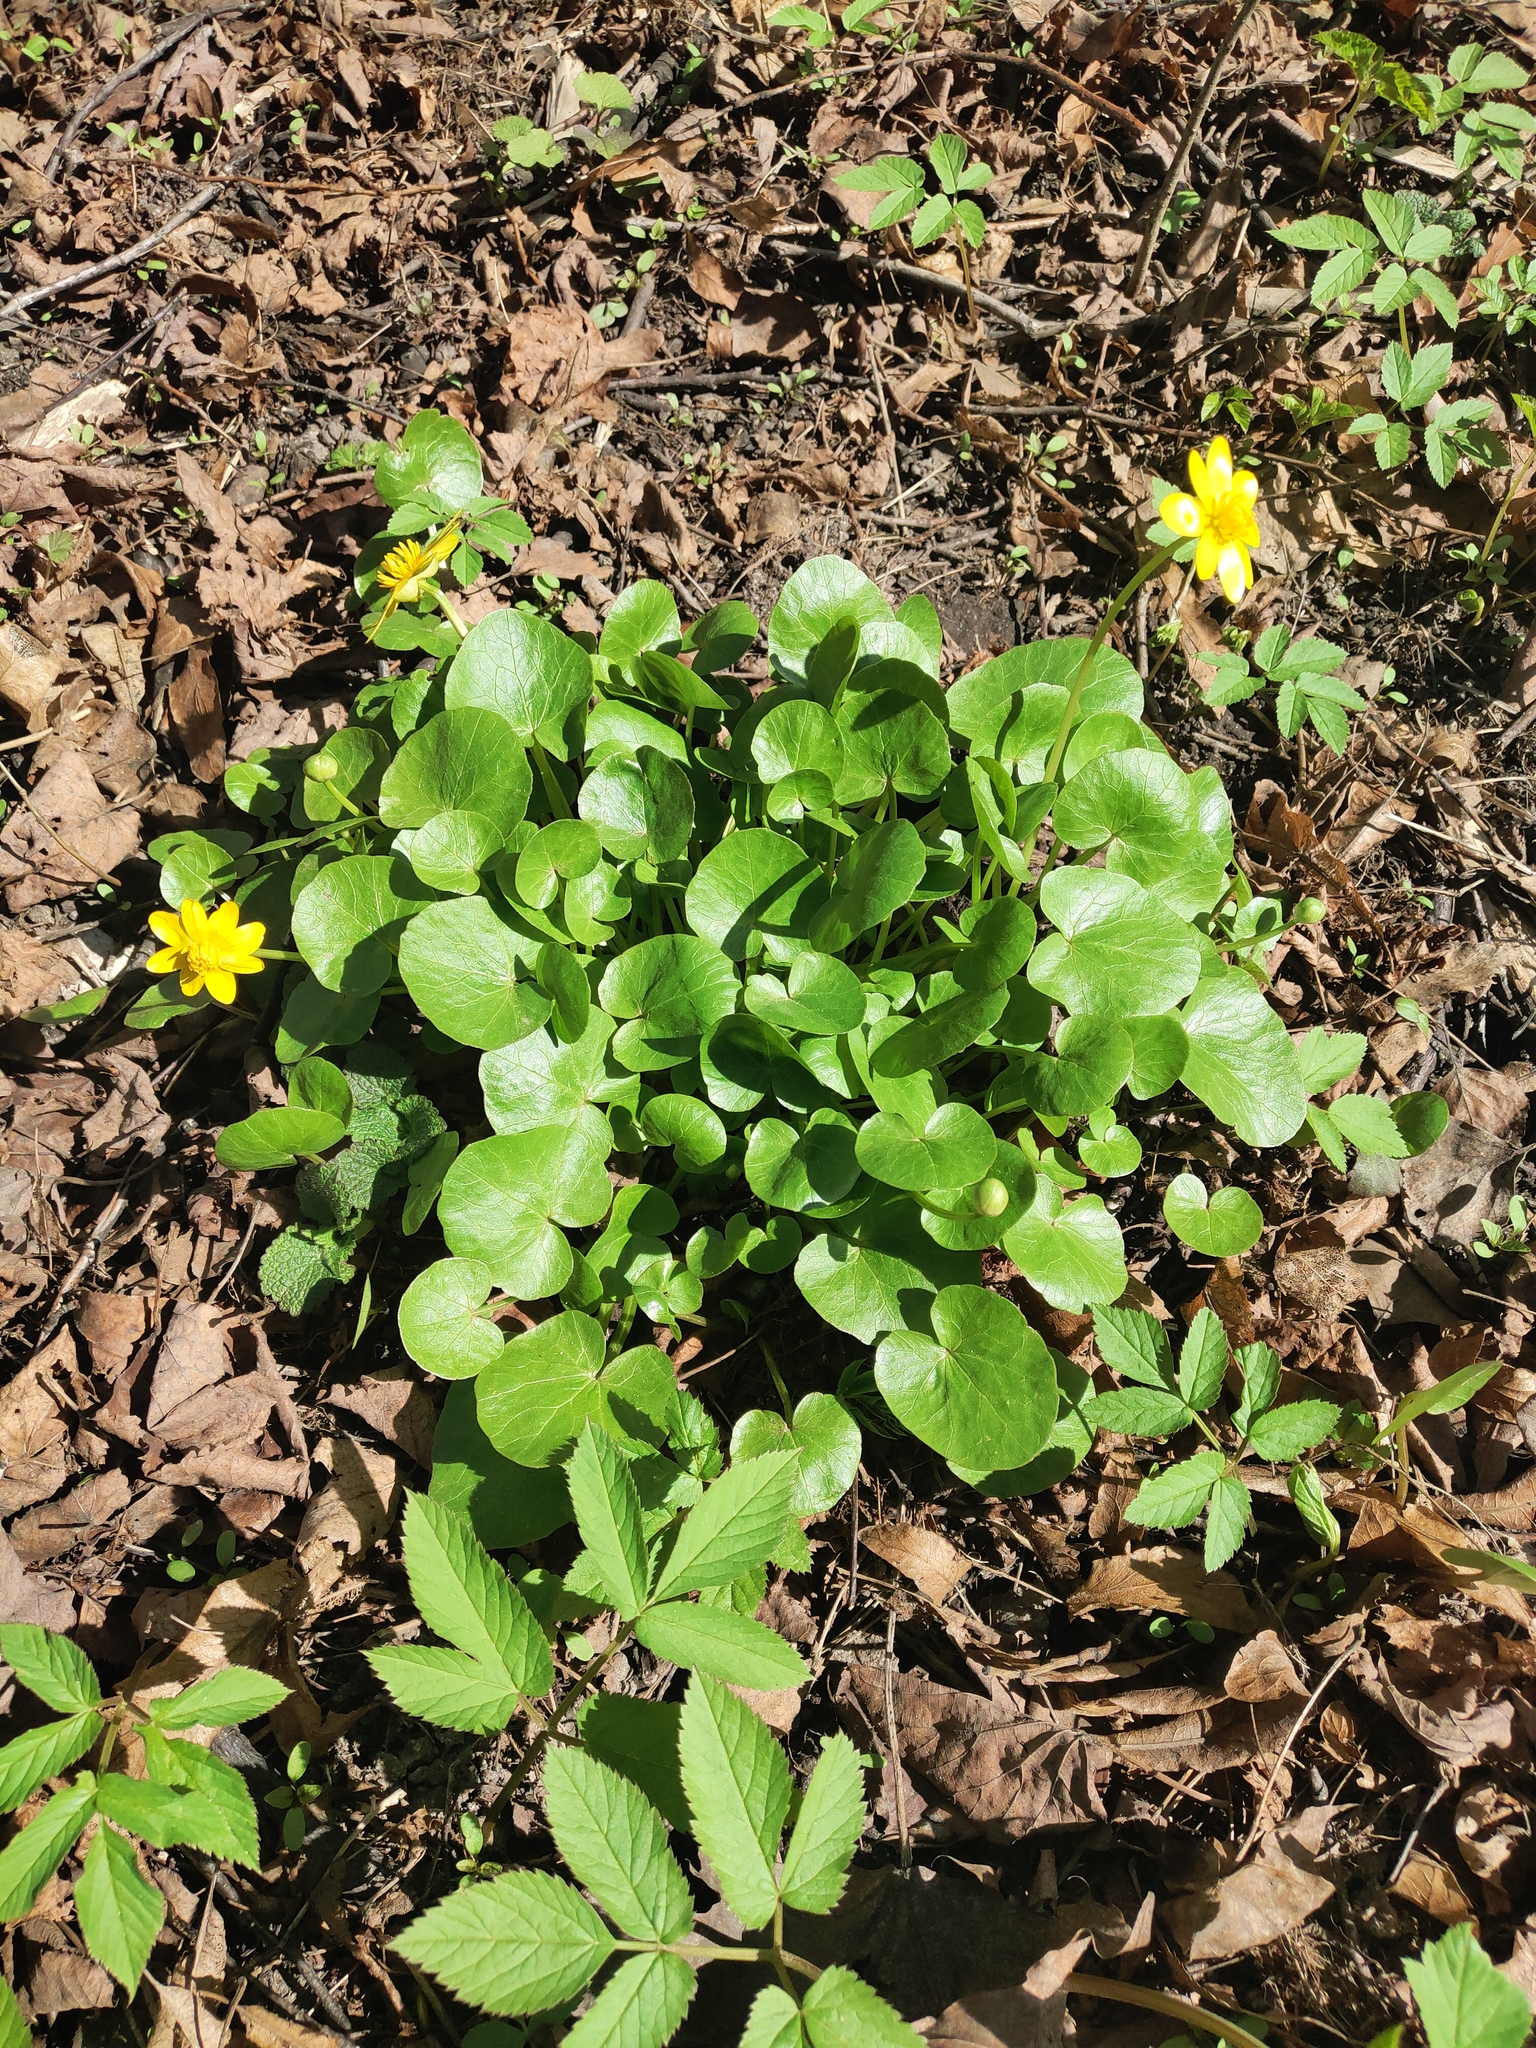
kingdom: Plantae
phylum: Tracheophyta
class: Magnoliopsida
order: Ranunculales
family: Ranunculaceae
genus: Ficaria
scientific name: Ficaria verna
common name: Lesser celandine
